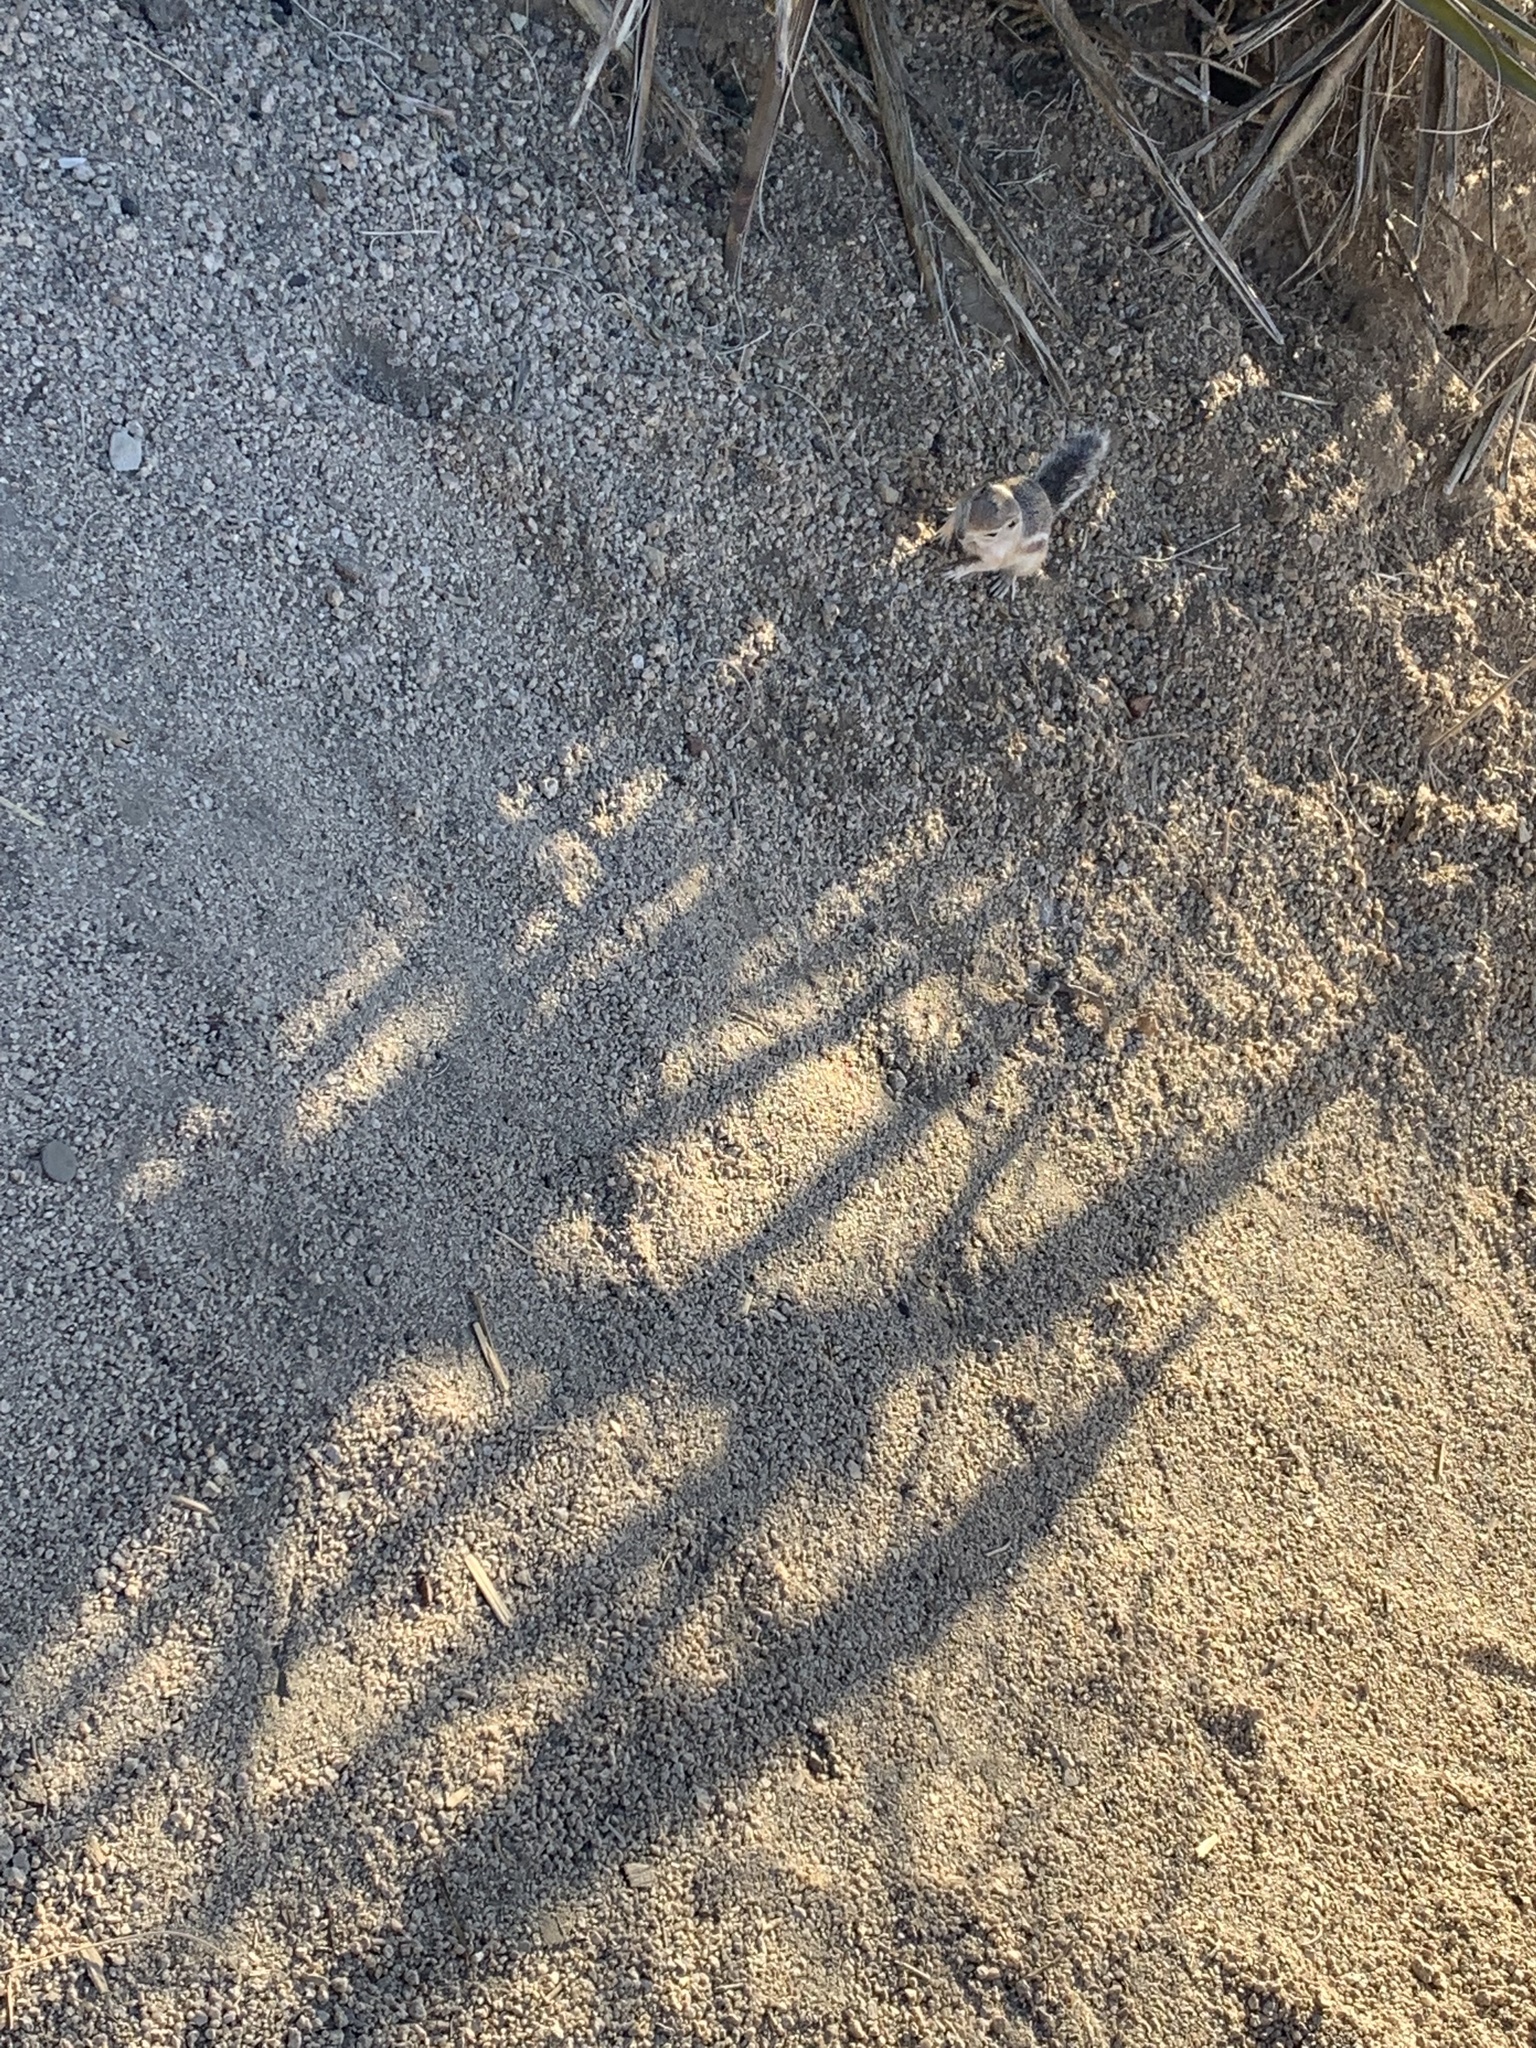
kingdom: Animalia
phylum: Chordata
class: Mammalia
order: Rodentia
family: Sciuridae
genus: Ammospermophilus
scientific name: Ammospermophilus leucurus
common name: White-tailed antelope squirrel
